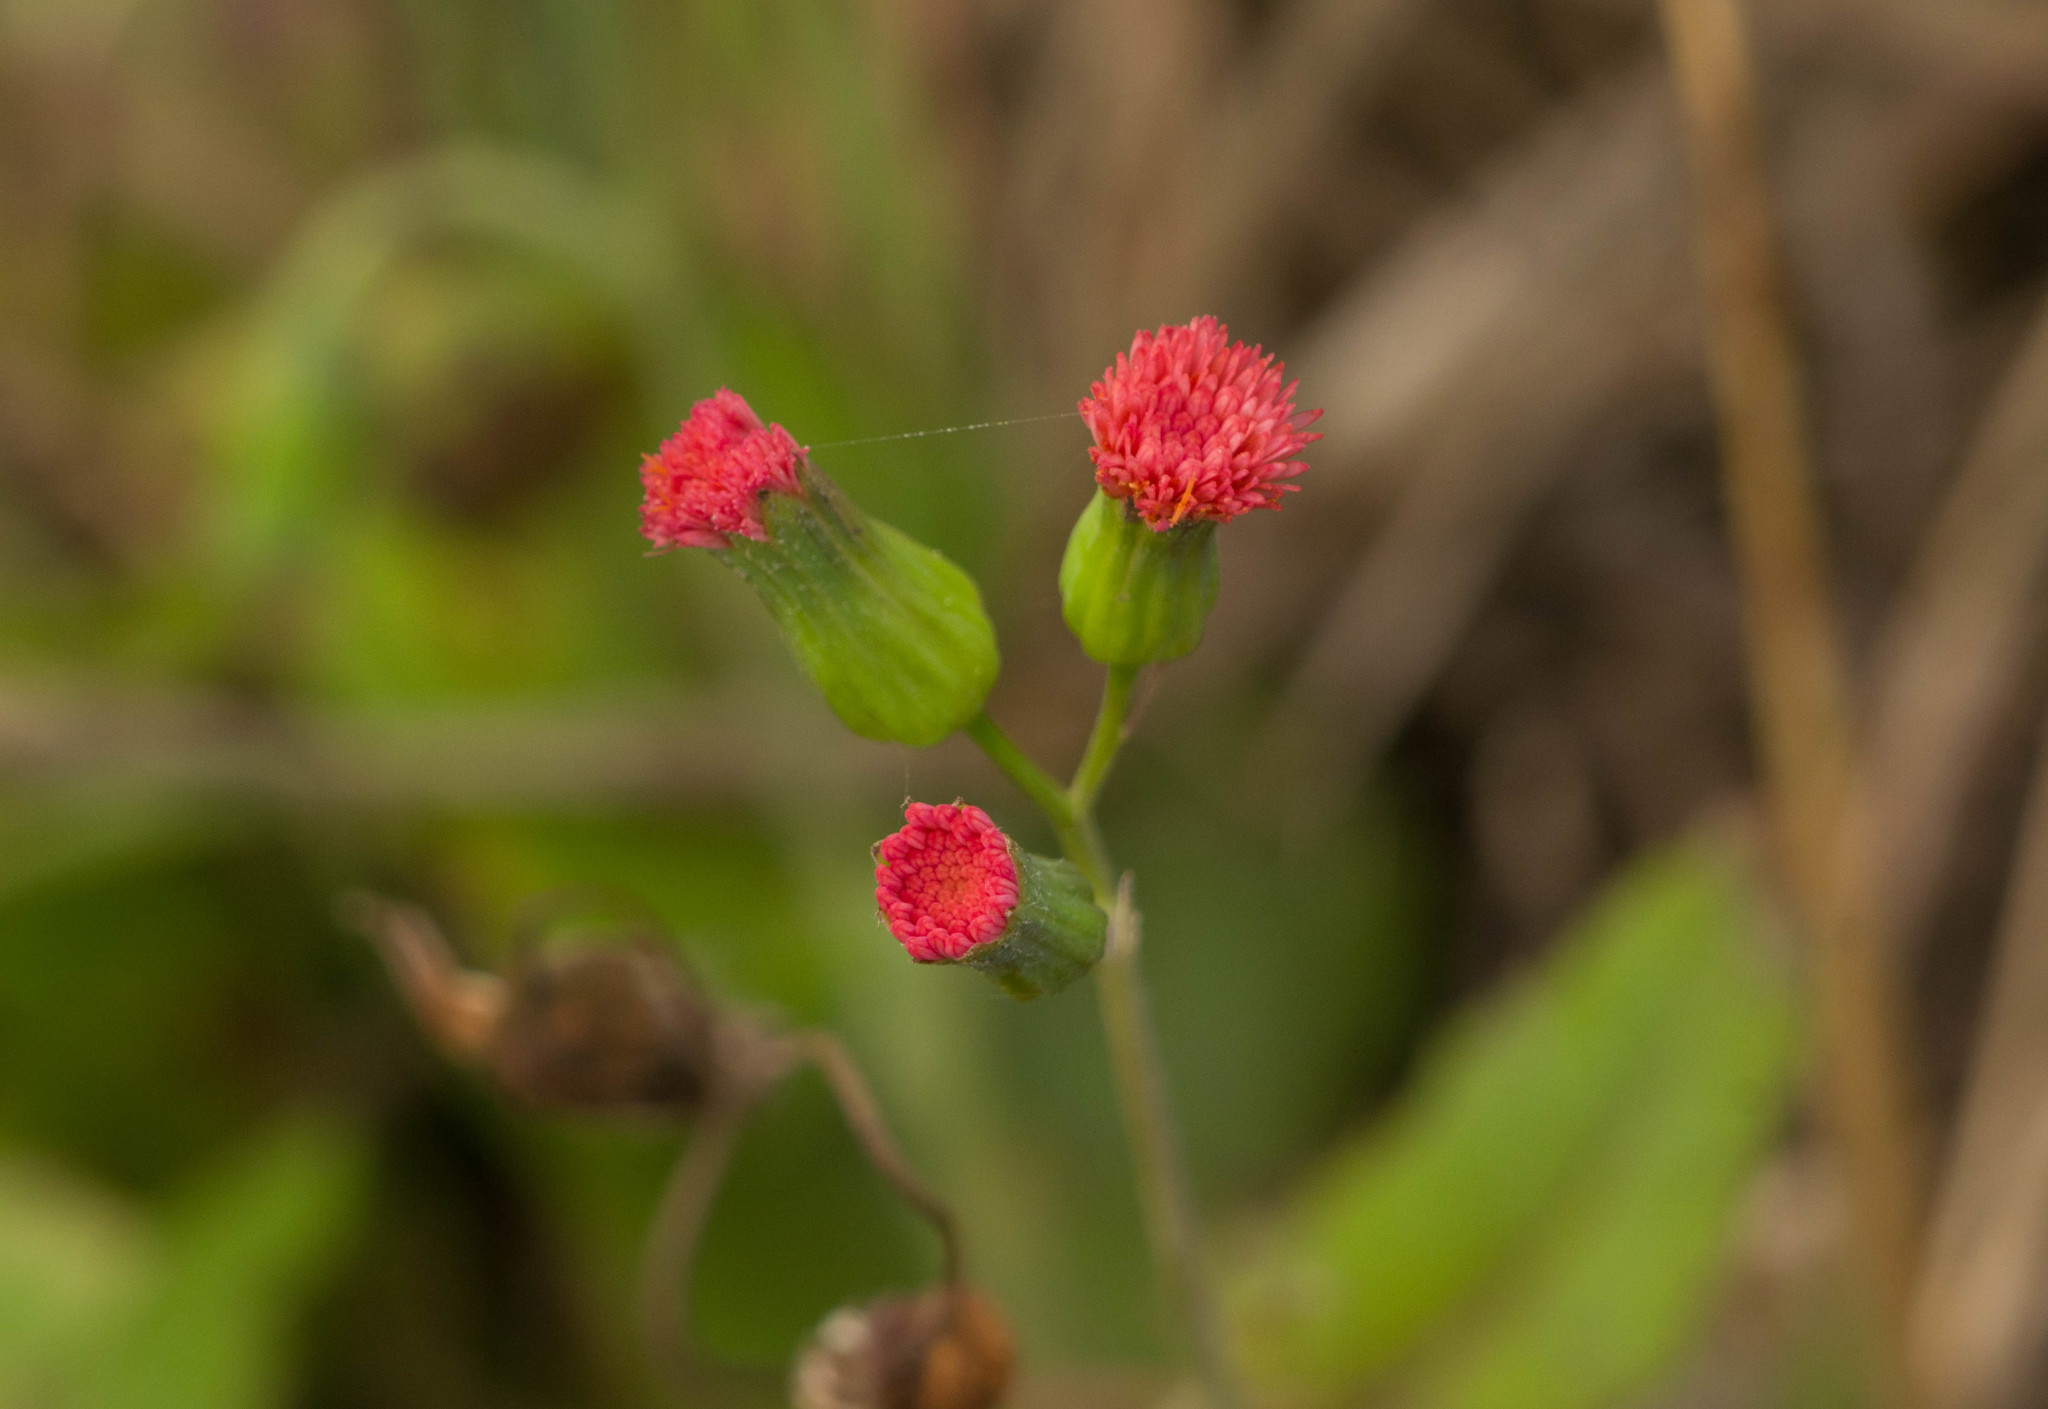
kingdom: Plantae
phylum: Tracheophyta
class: Magnoliopsida
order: Asterales
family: Asteraceae
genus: Emilia
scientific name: Emilia fosbergii
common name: Florida tasselflower
